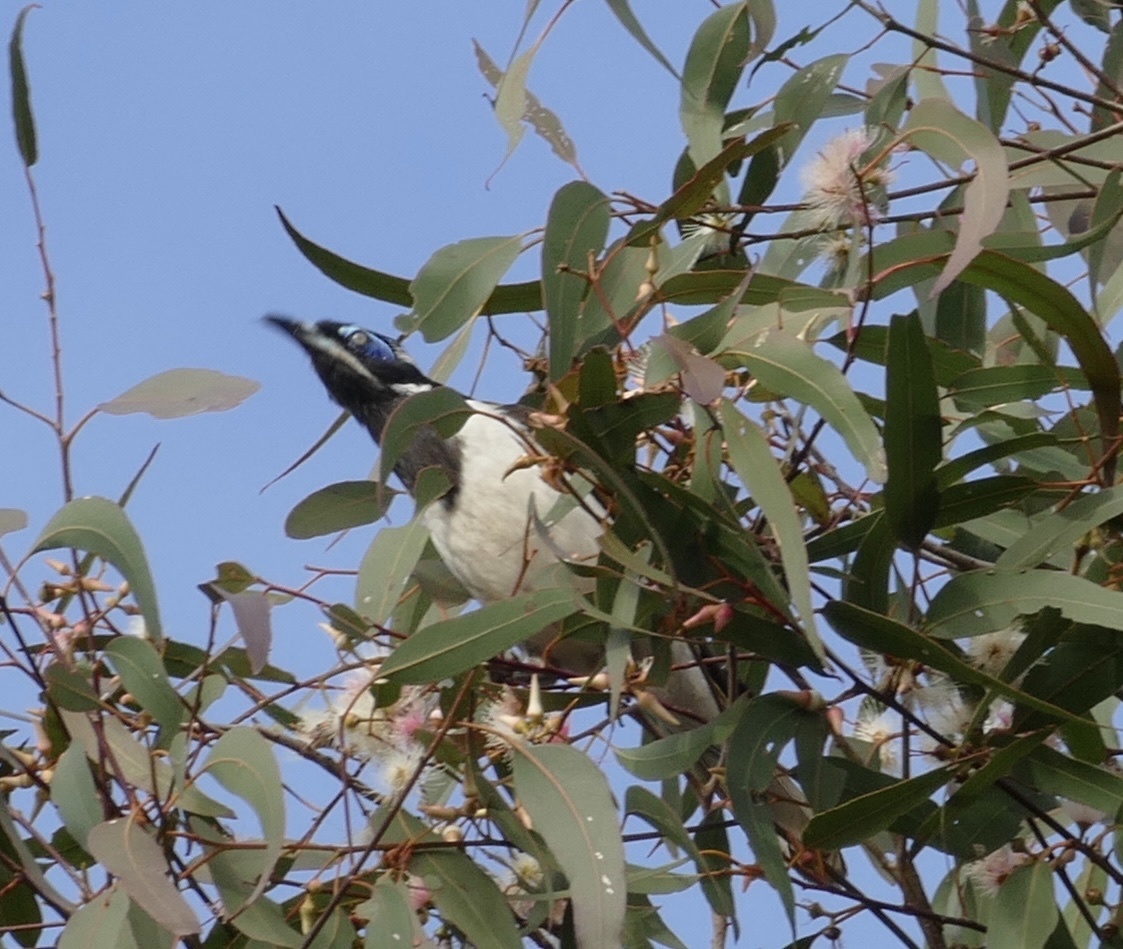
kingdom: Animalia
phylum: Chordata
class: Aves
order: Passeriformes
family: Meliphagidae
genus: Entomyzon
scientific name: Entomyzon cyanotis
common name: Blue-faced honeyeater
